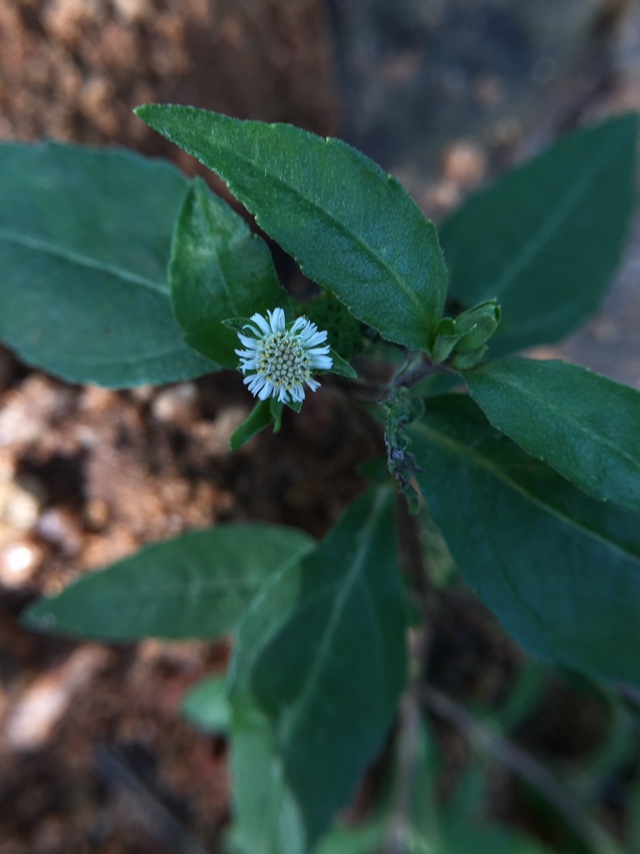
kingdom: Plantae
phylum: Tracheophyta
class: Magnoliopsida
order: Asterales
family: Asteraceae
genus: Eclipta
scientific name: Eclipta prostrata
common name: False daisy
